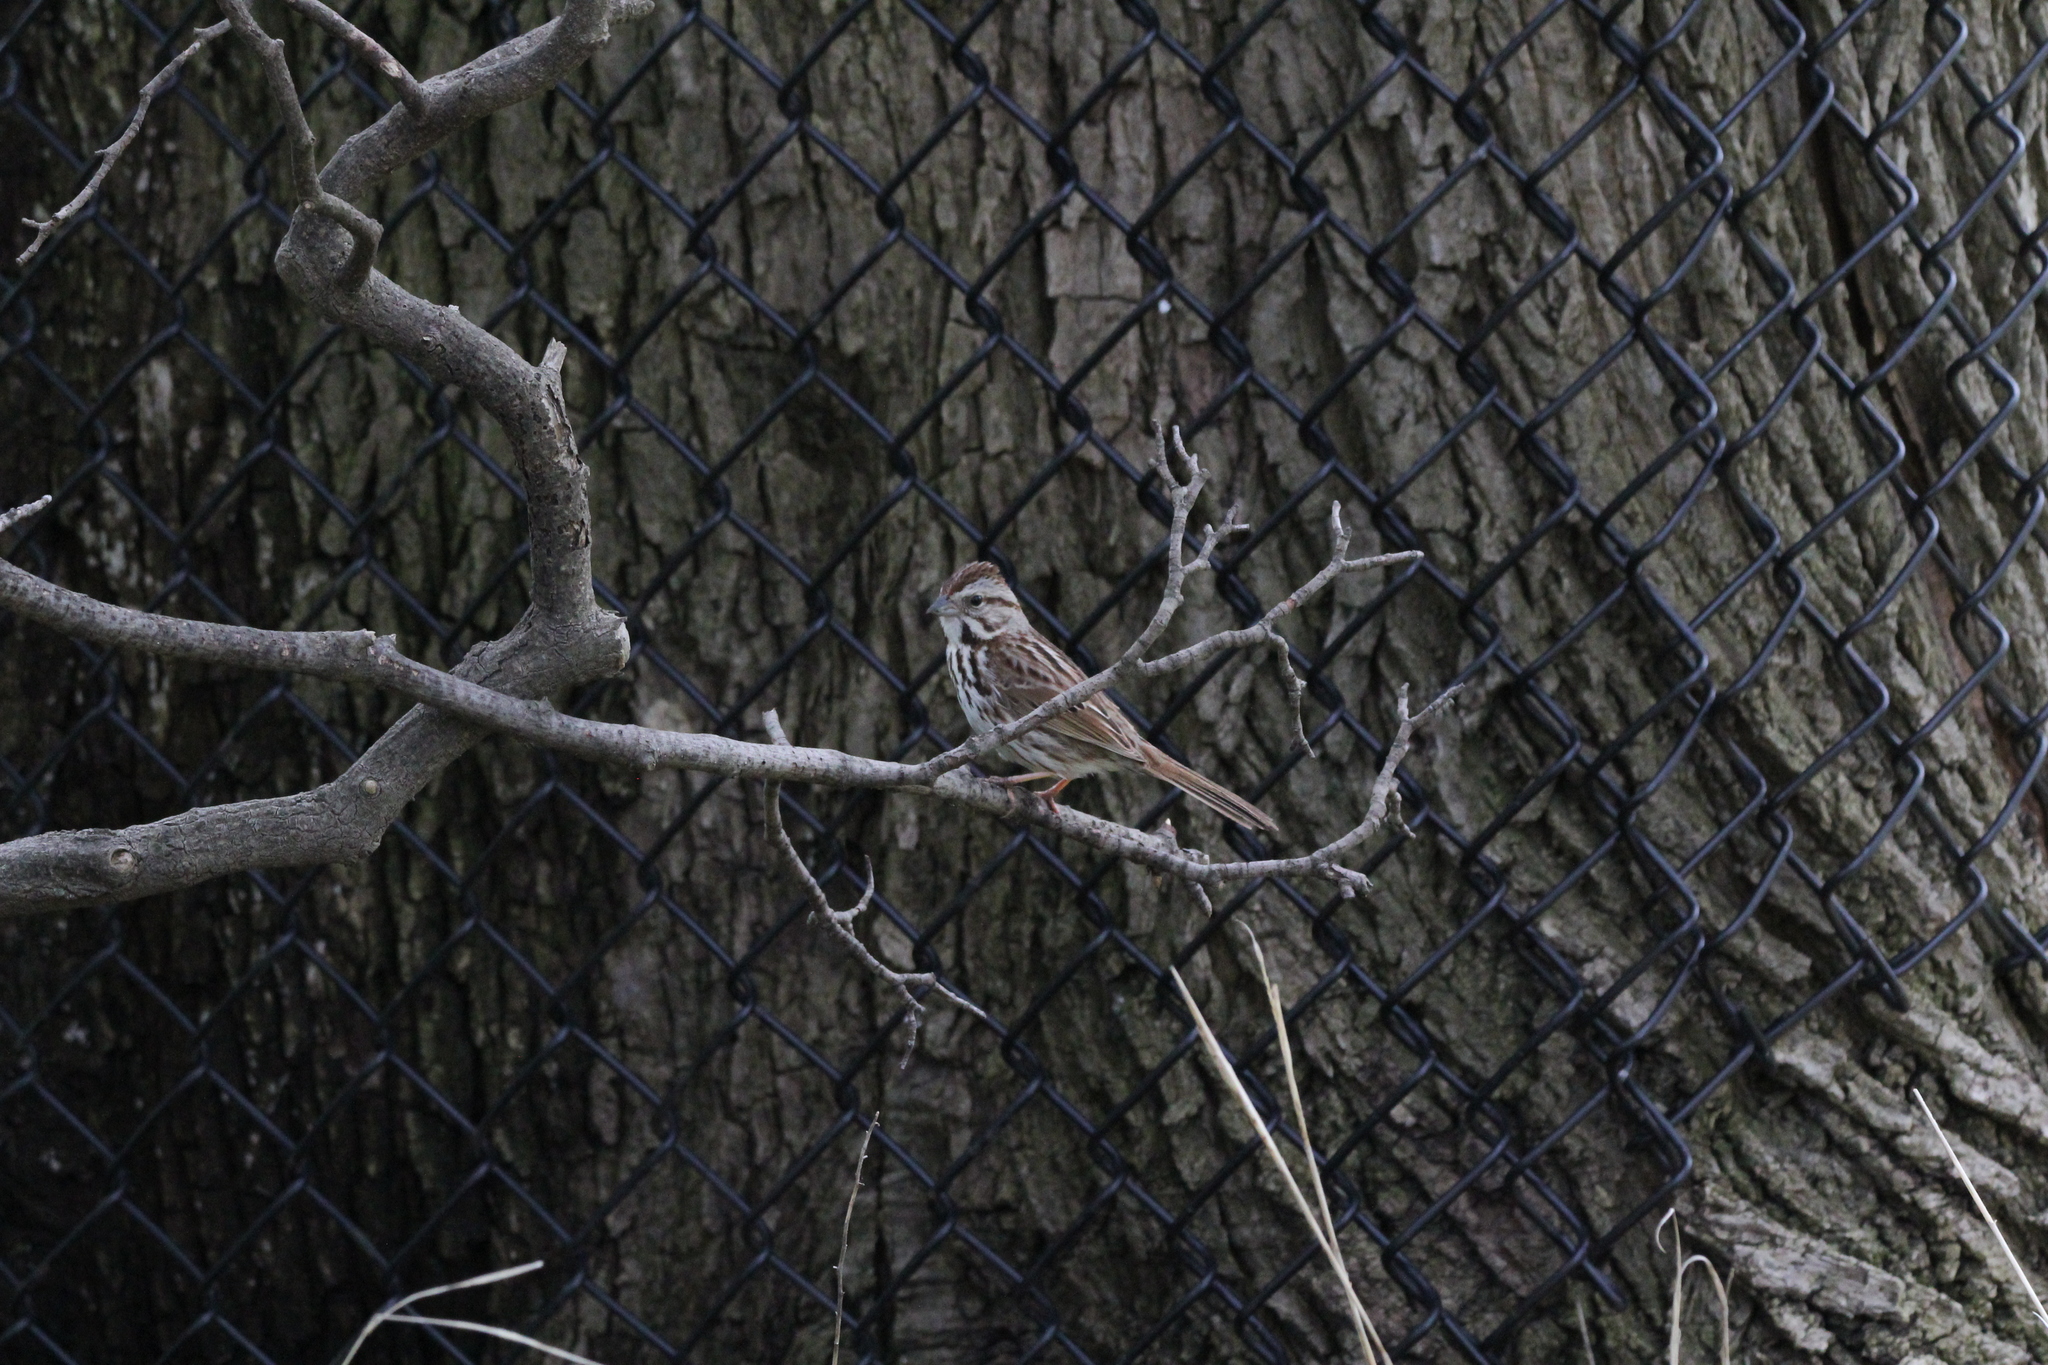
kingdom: Animalia
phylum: Chordata
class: Aves
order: Passeriformes
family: Passerellidae
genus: Melospiza
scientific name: Melospiza melodia
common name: Song sparrow
